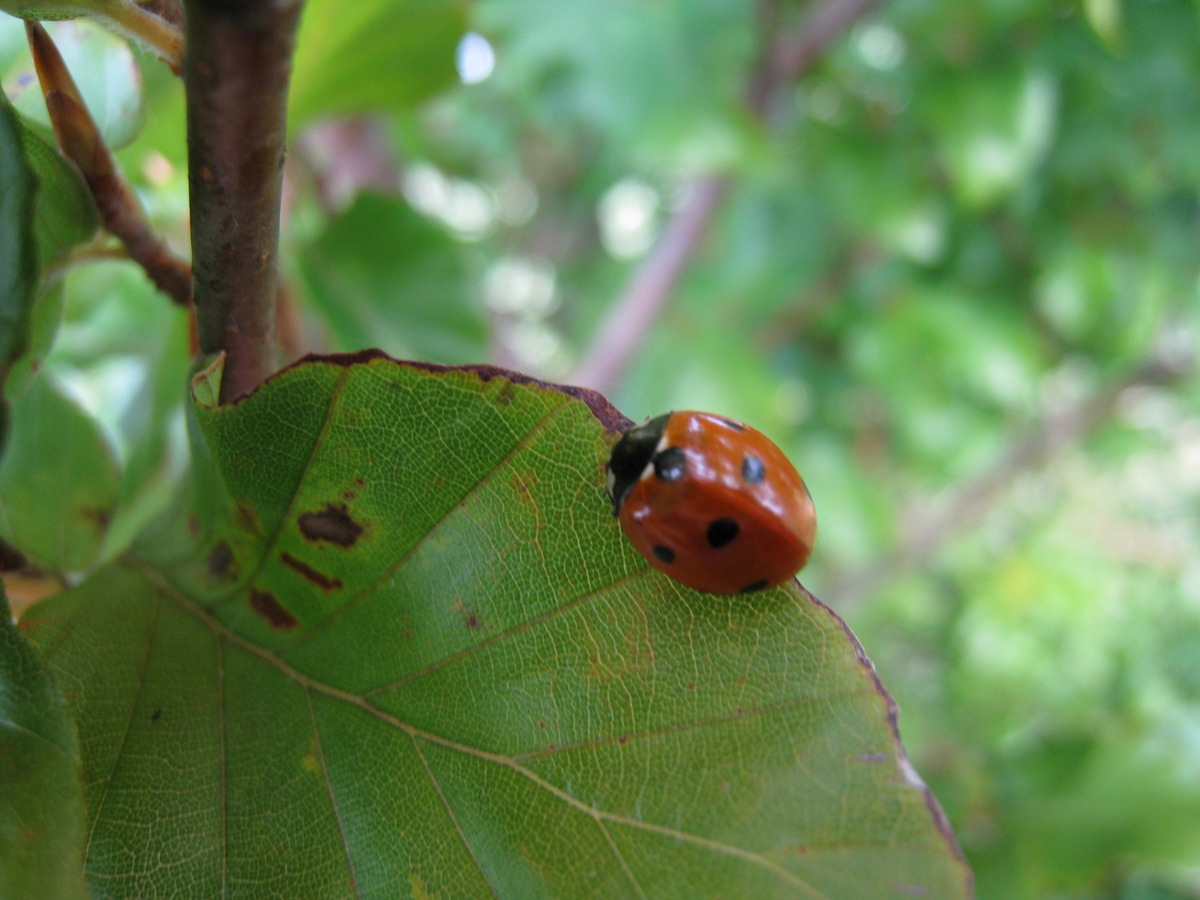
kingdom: Animalia
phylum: Arthropoda
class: Insecta
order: Coleoptera
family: Coccinellidae
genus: Coccinella
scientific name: Coccinella septempunctata
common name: Sevenspotted lady beetle
